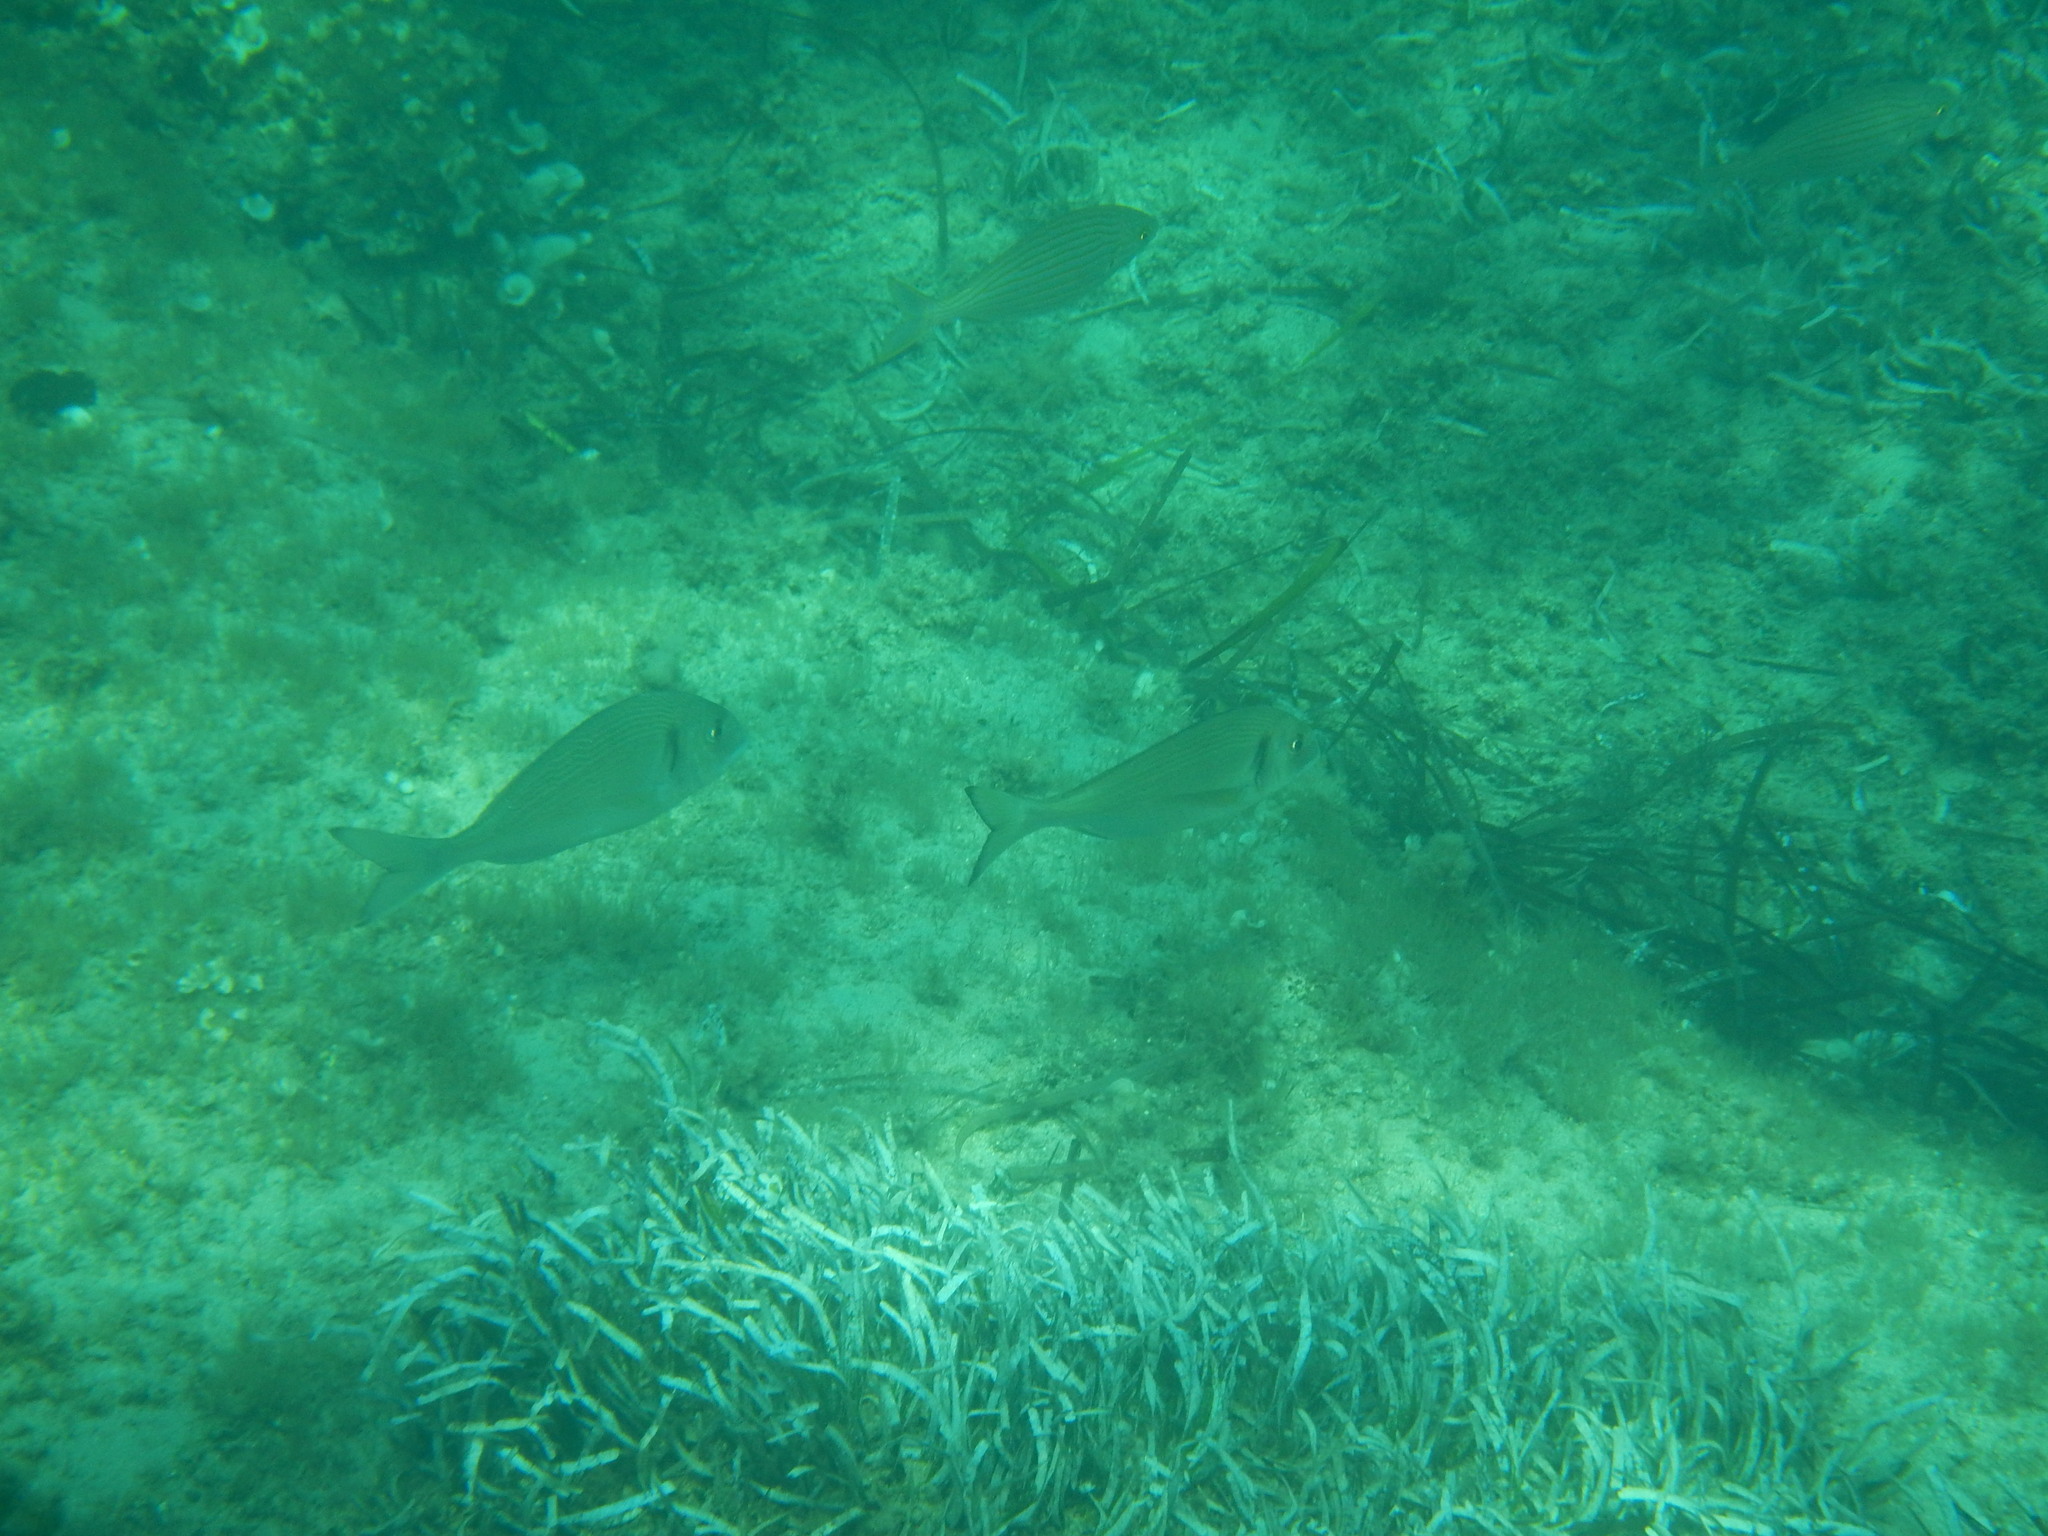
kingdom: Animalia
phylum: Chordata
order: Perciformes
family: Sparidae
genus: Sparus
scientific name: Sparus aurata
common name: Gilthead
